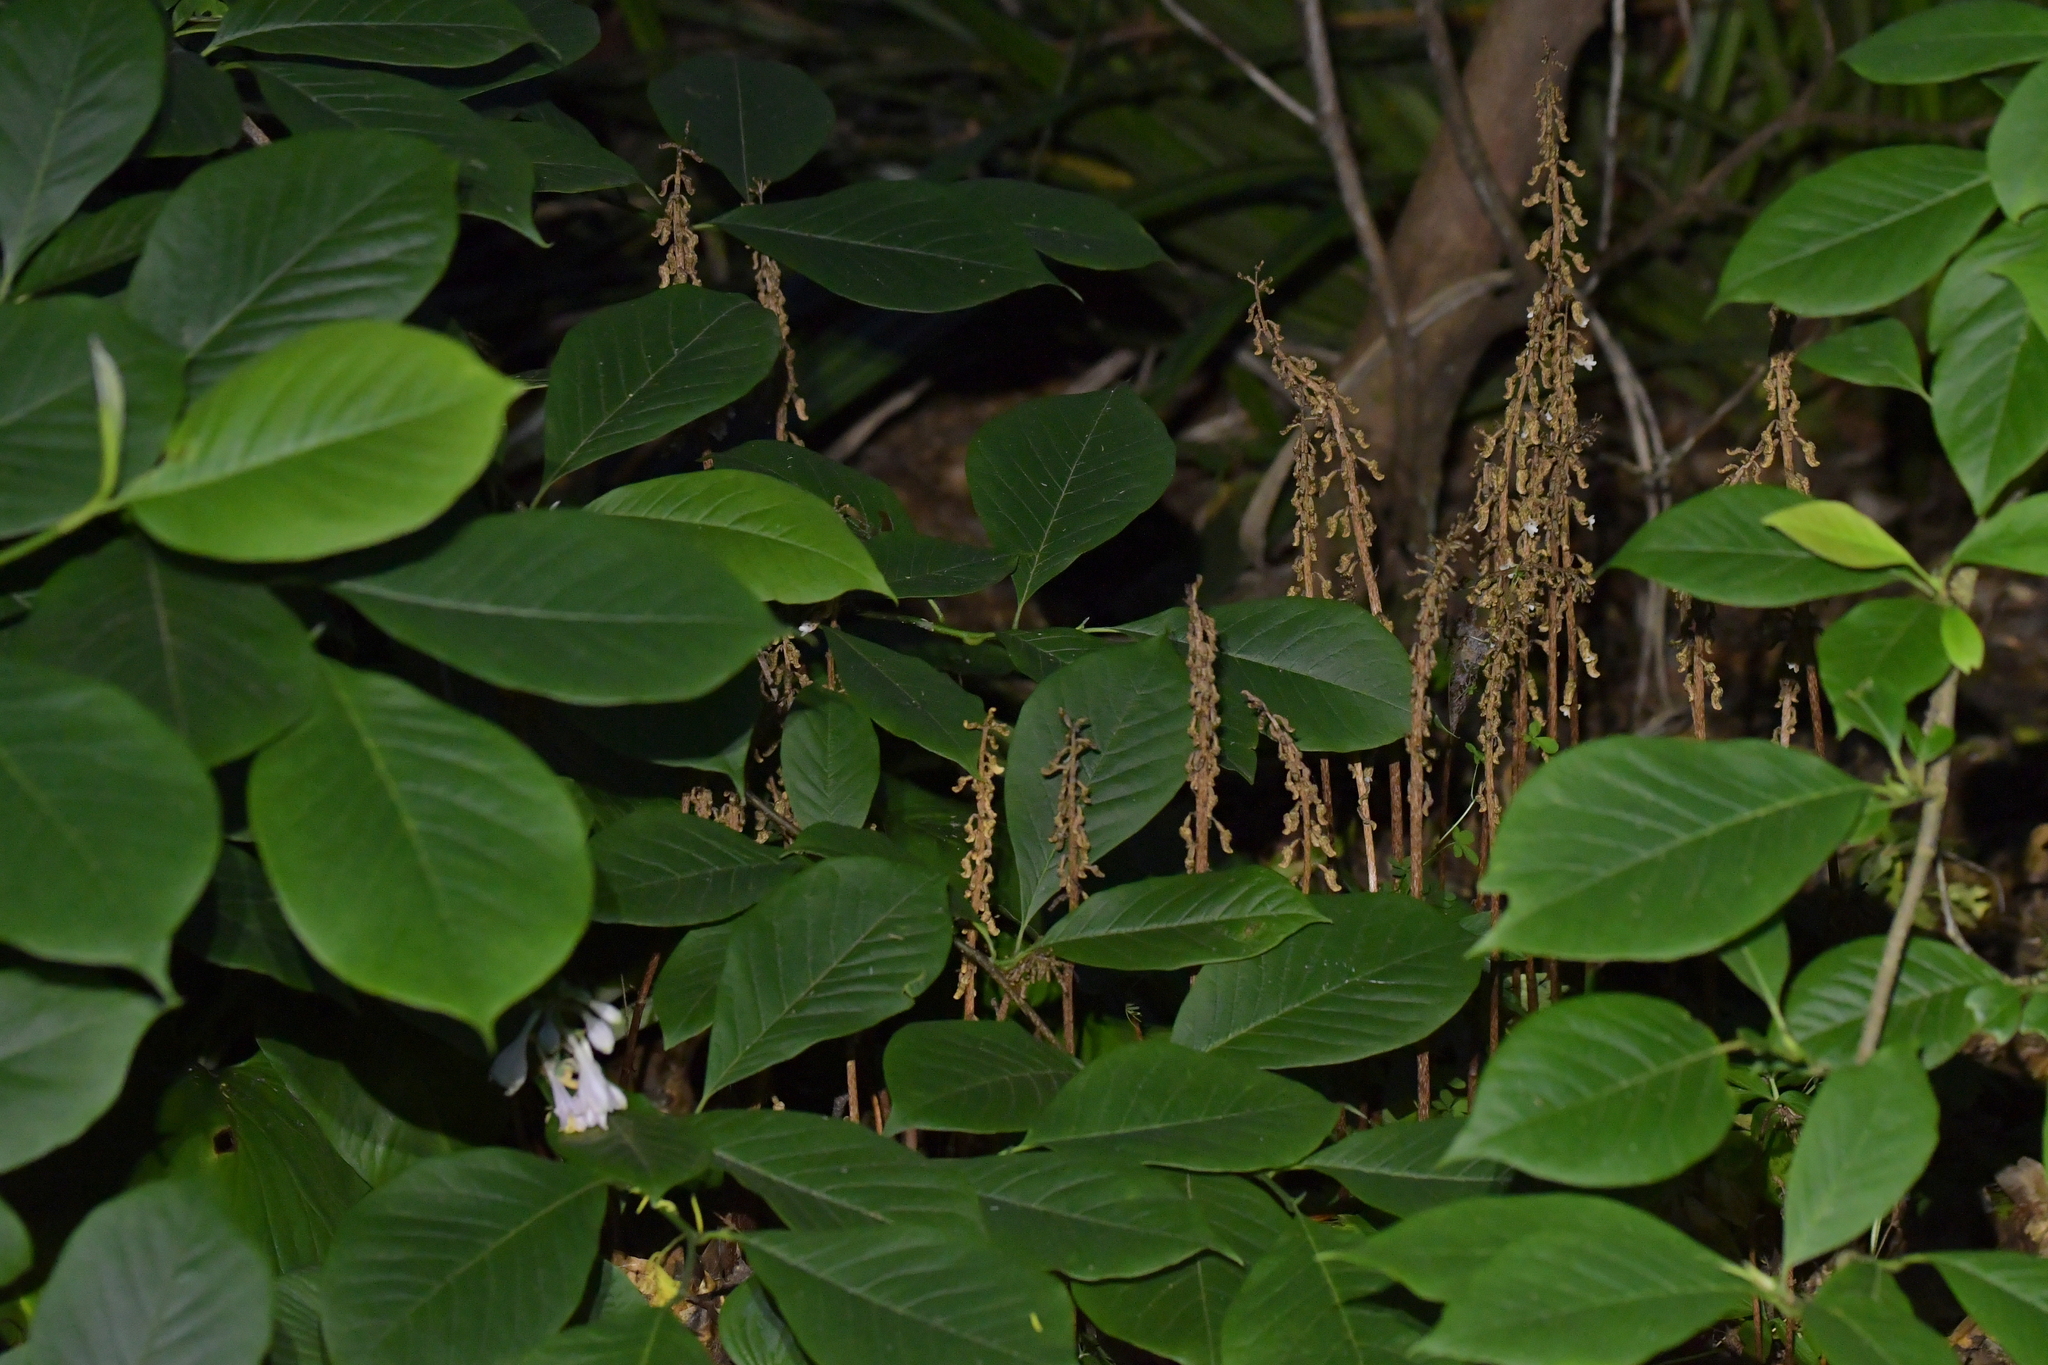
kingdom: Plantae
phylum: Tracheophyta
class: Liliopsida
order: Asparagales
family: Orchidaceae
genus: Gastrodia
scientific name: Gastrodia cunninghamii
